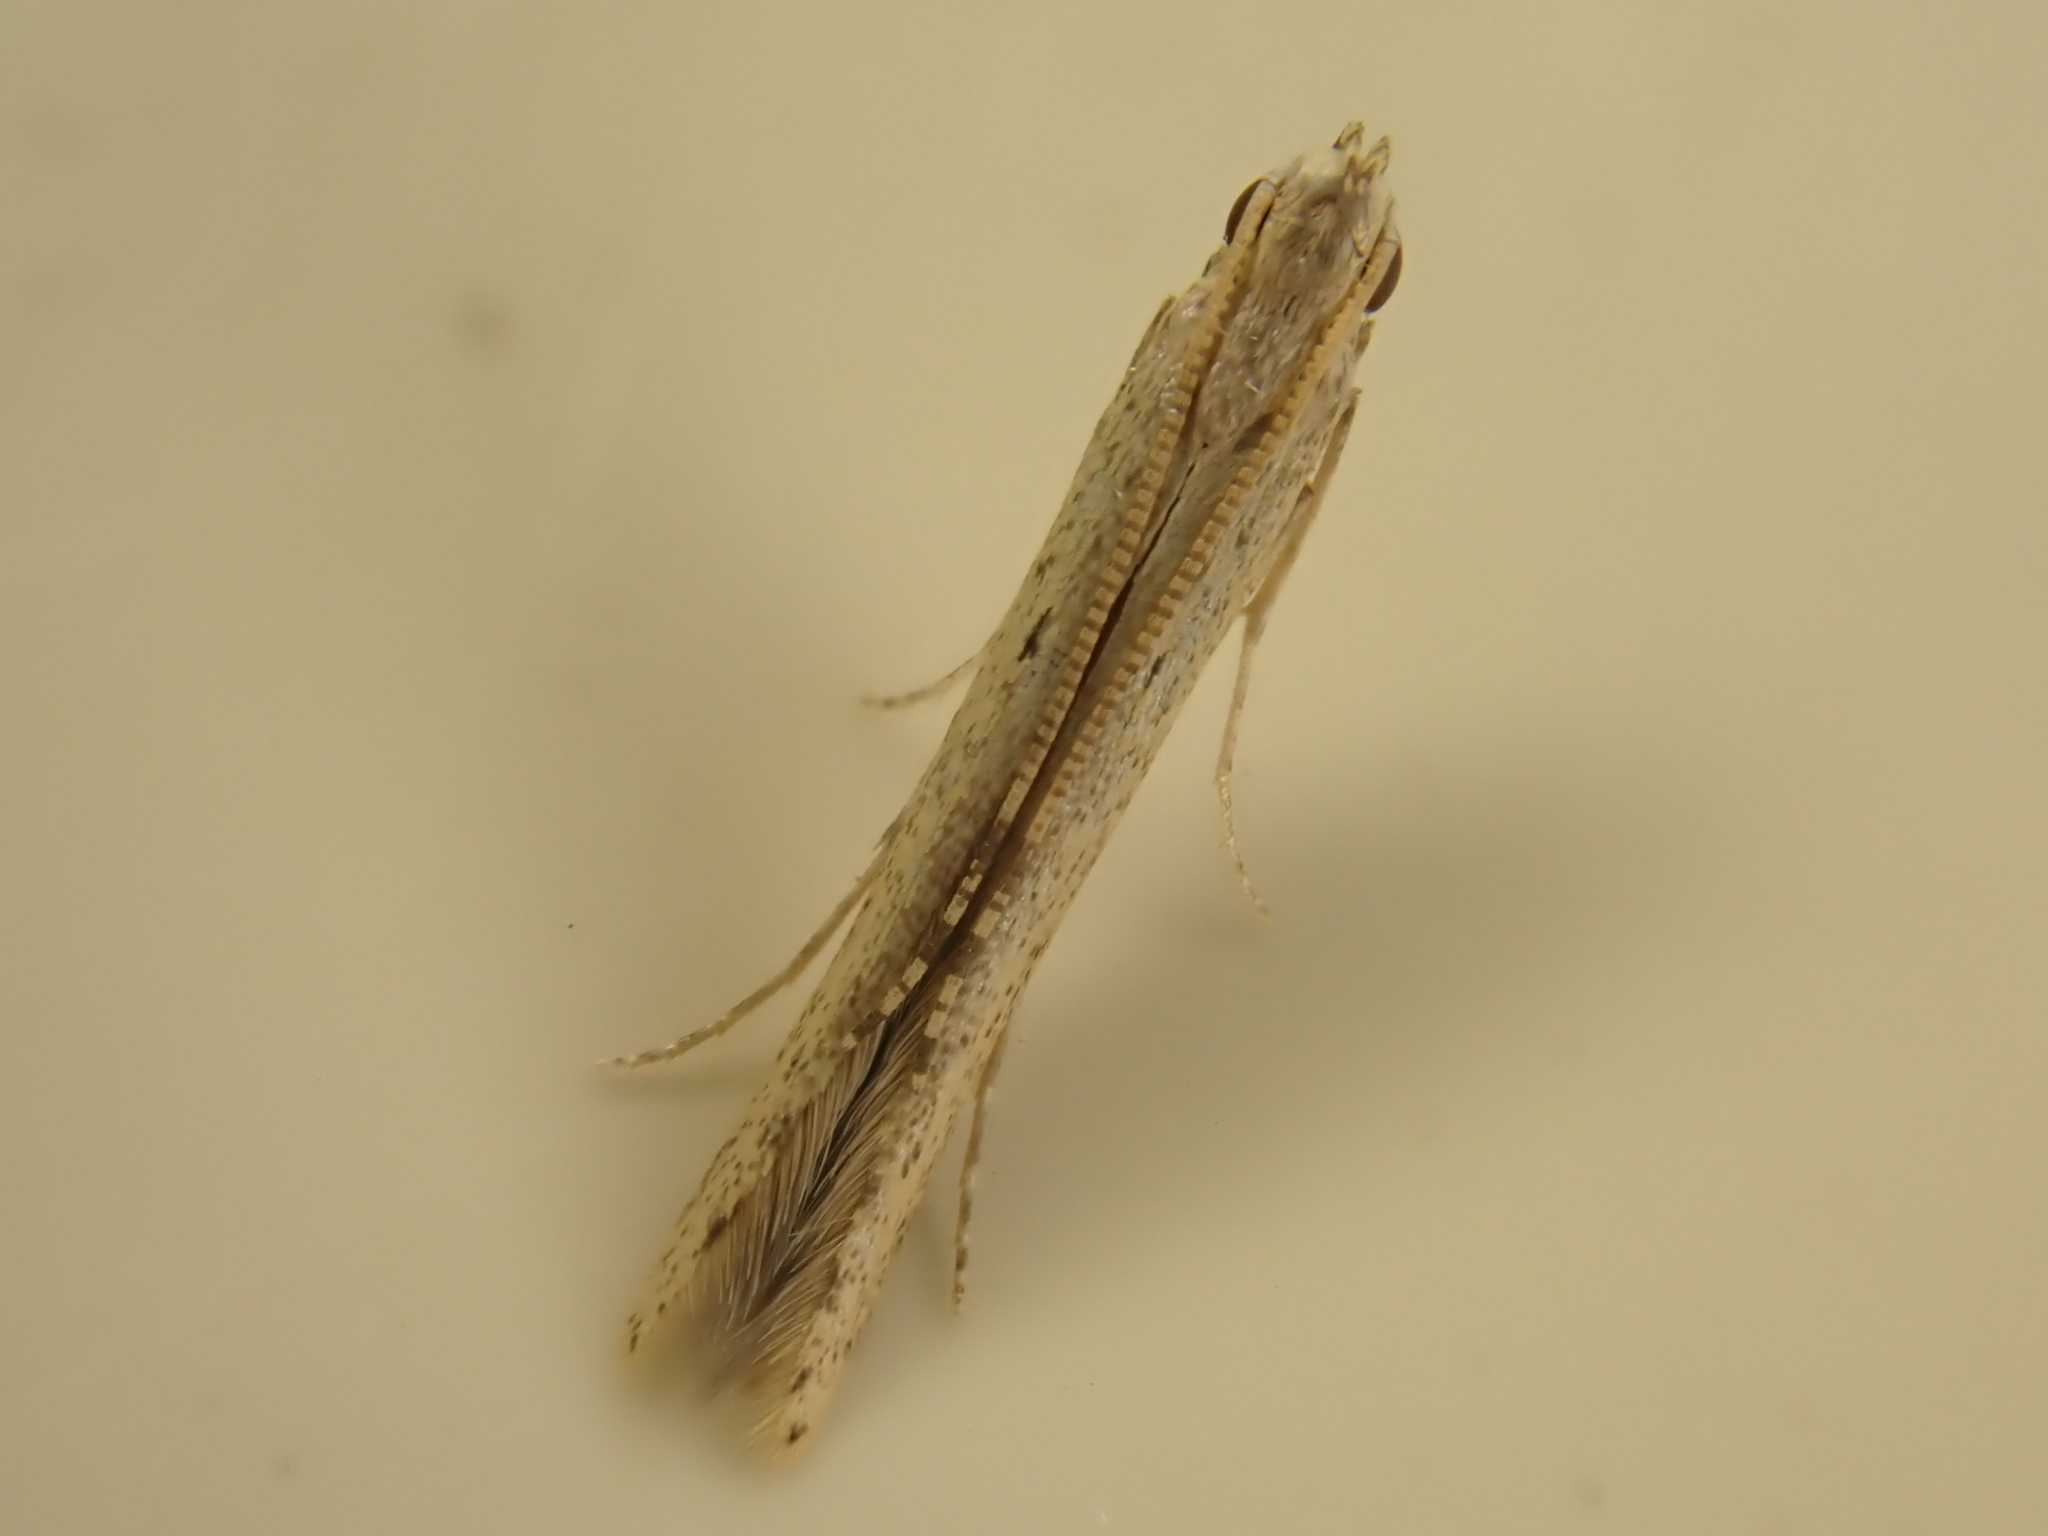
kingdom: Animalia
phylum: Arthropoda
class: Insecta
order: Lepidoptera
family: Batrachedridae
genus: Batrachedra
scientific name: Batrachedra
